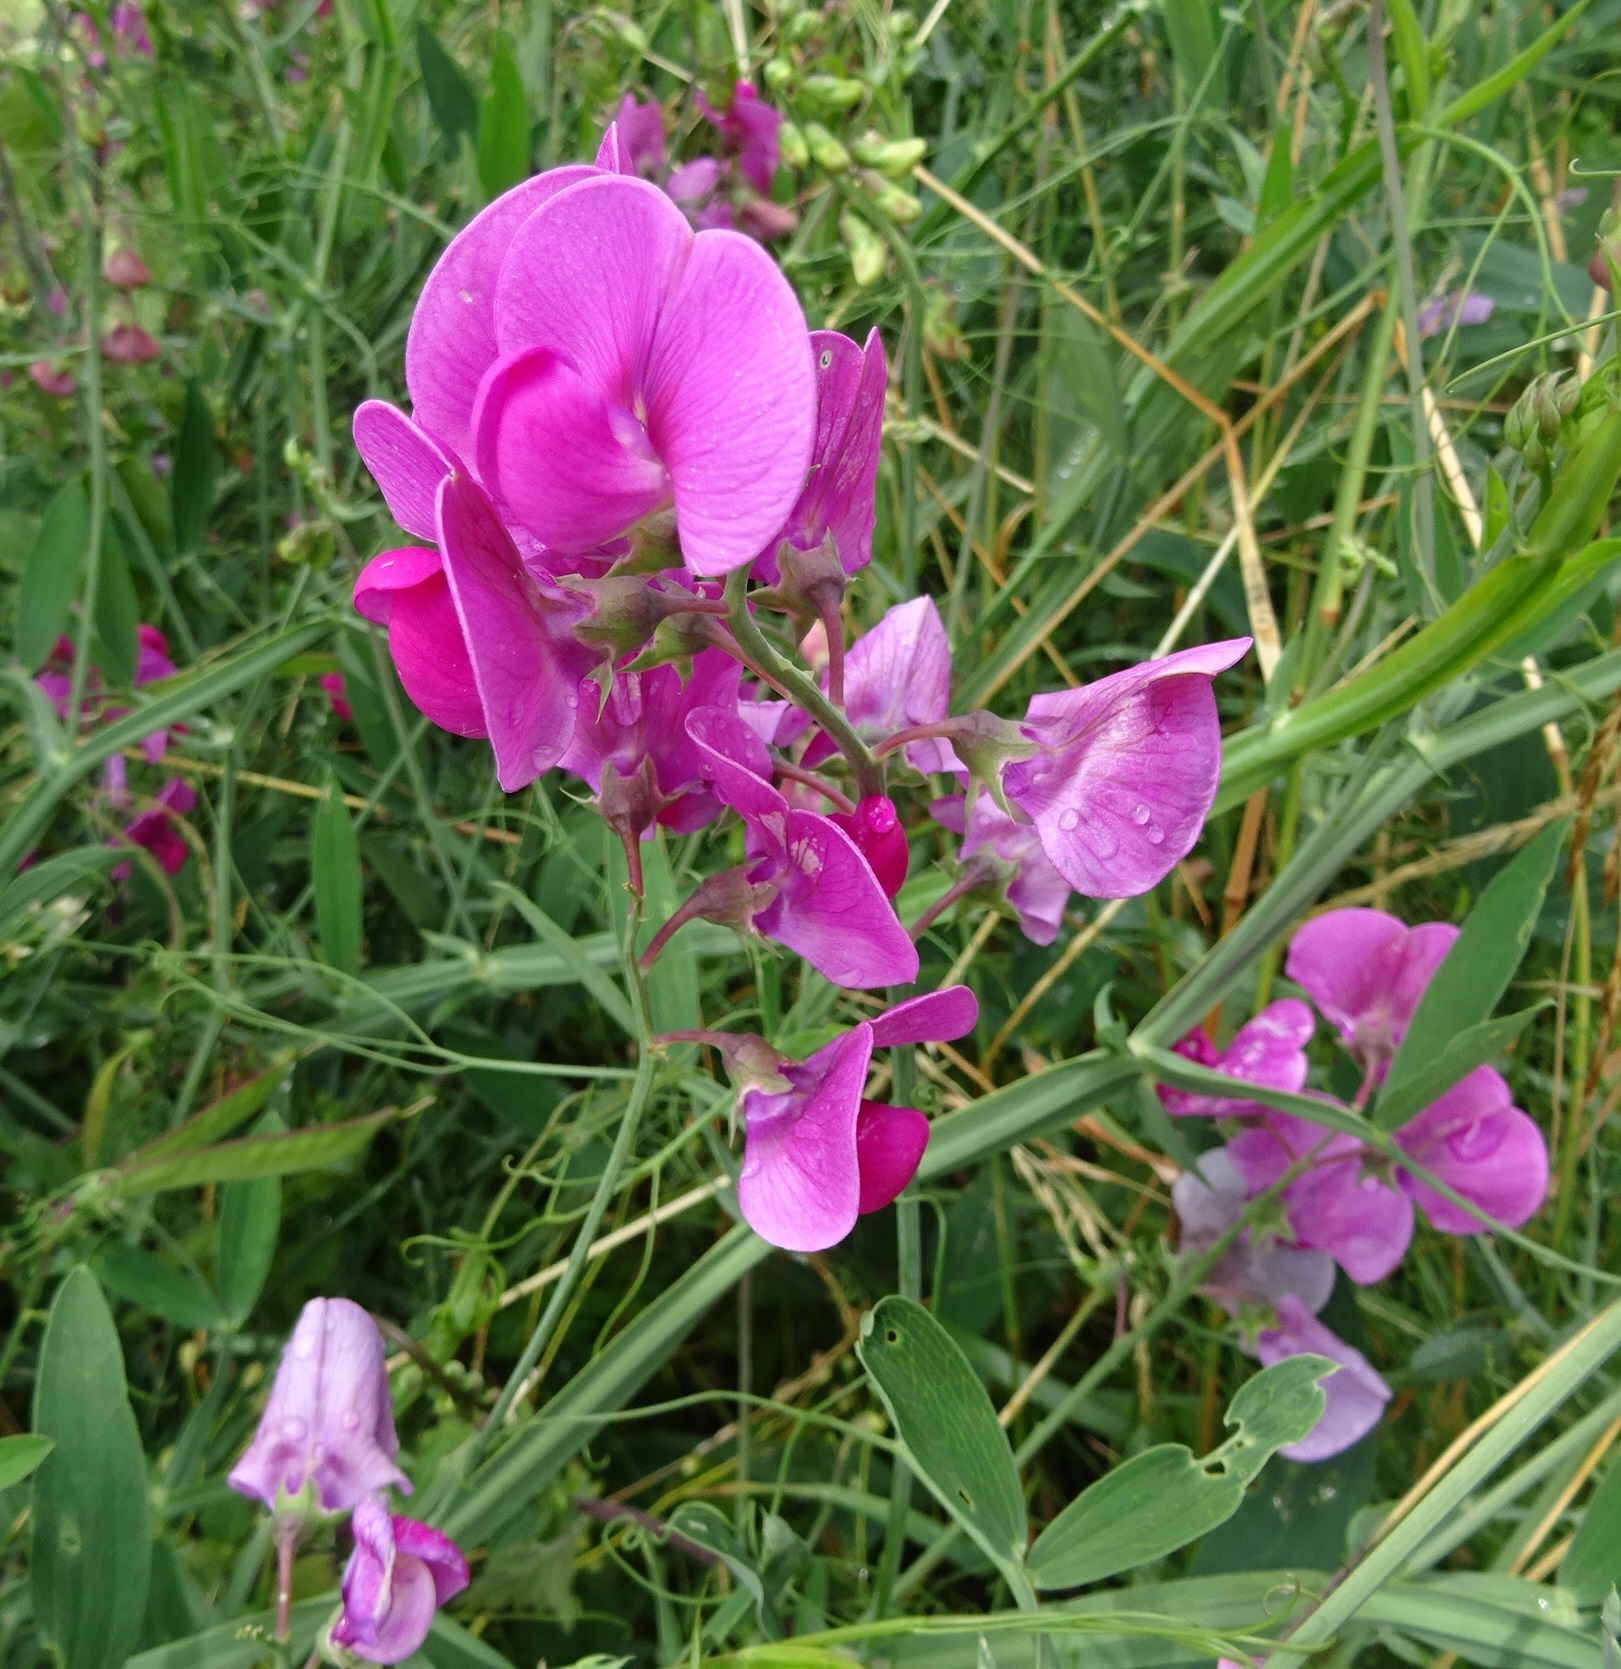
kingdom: Plantae
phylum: Tracheophyta
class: Magnoliopsida
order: Fabales
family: Fabaceae
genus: Lathyrus
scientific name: Lathyrus latifolius
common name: Perennial pea
